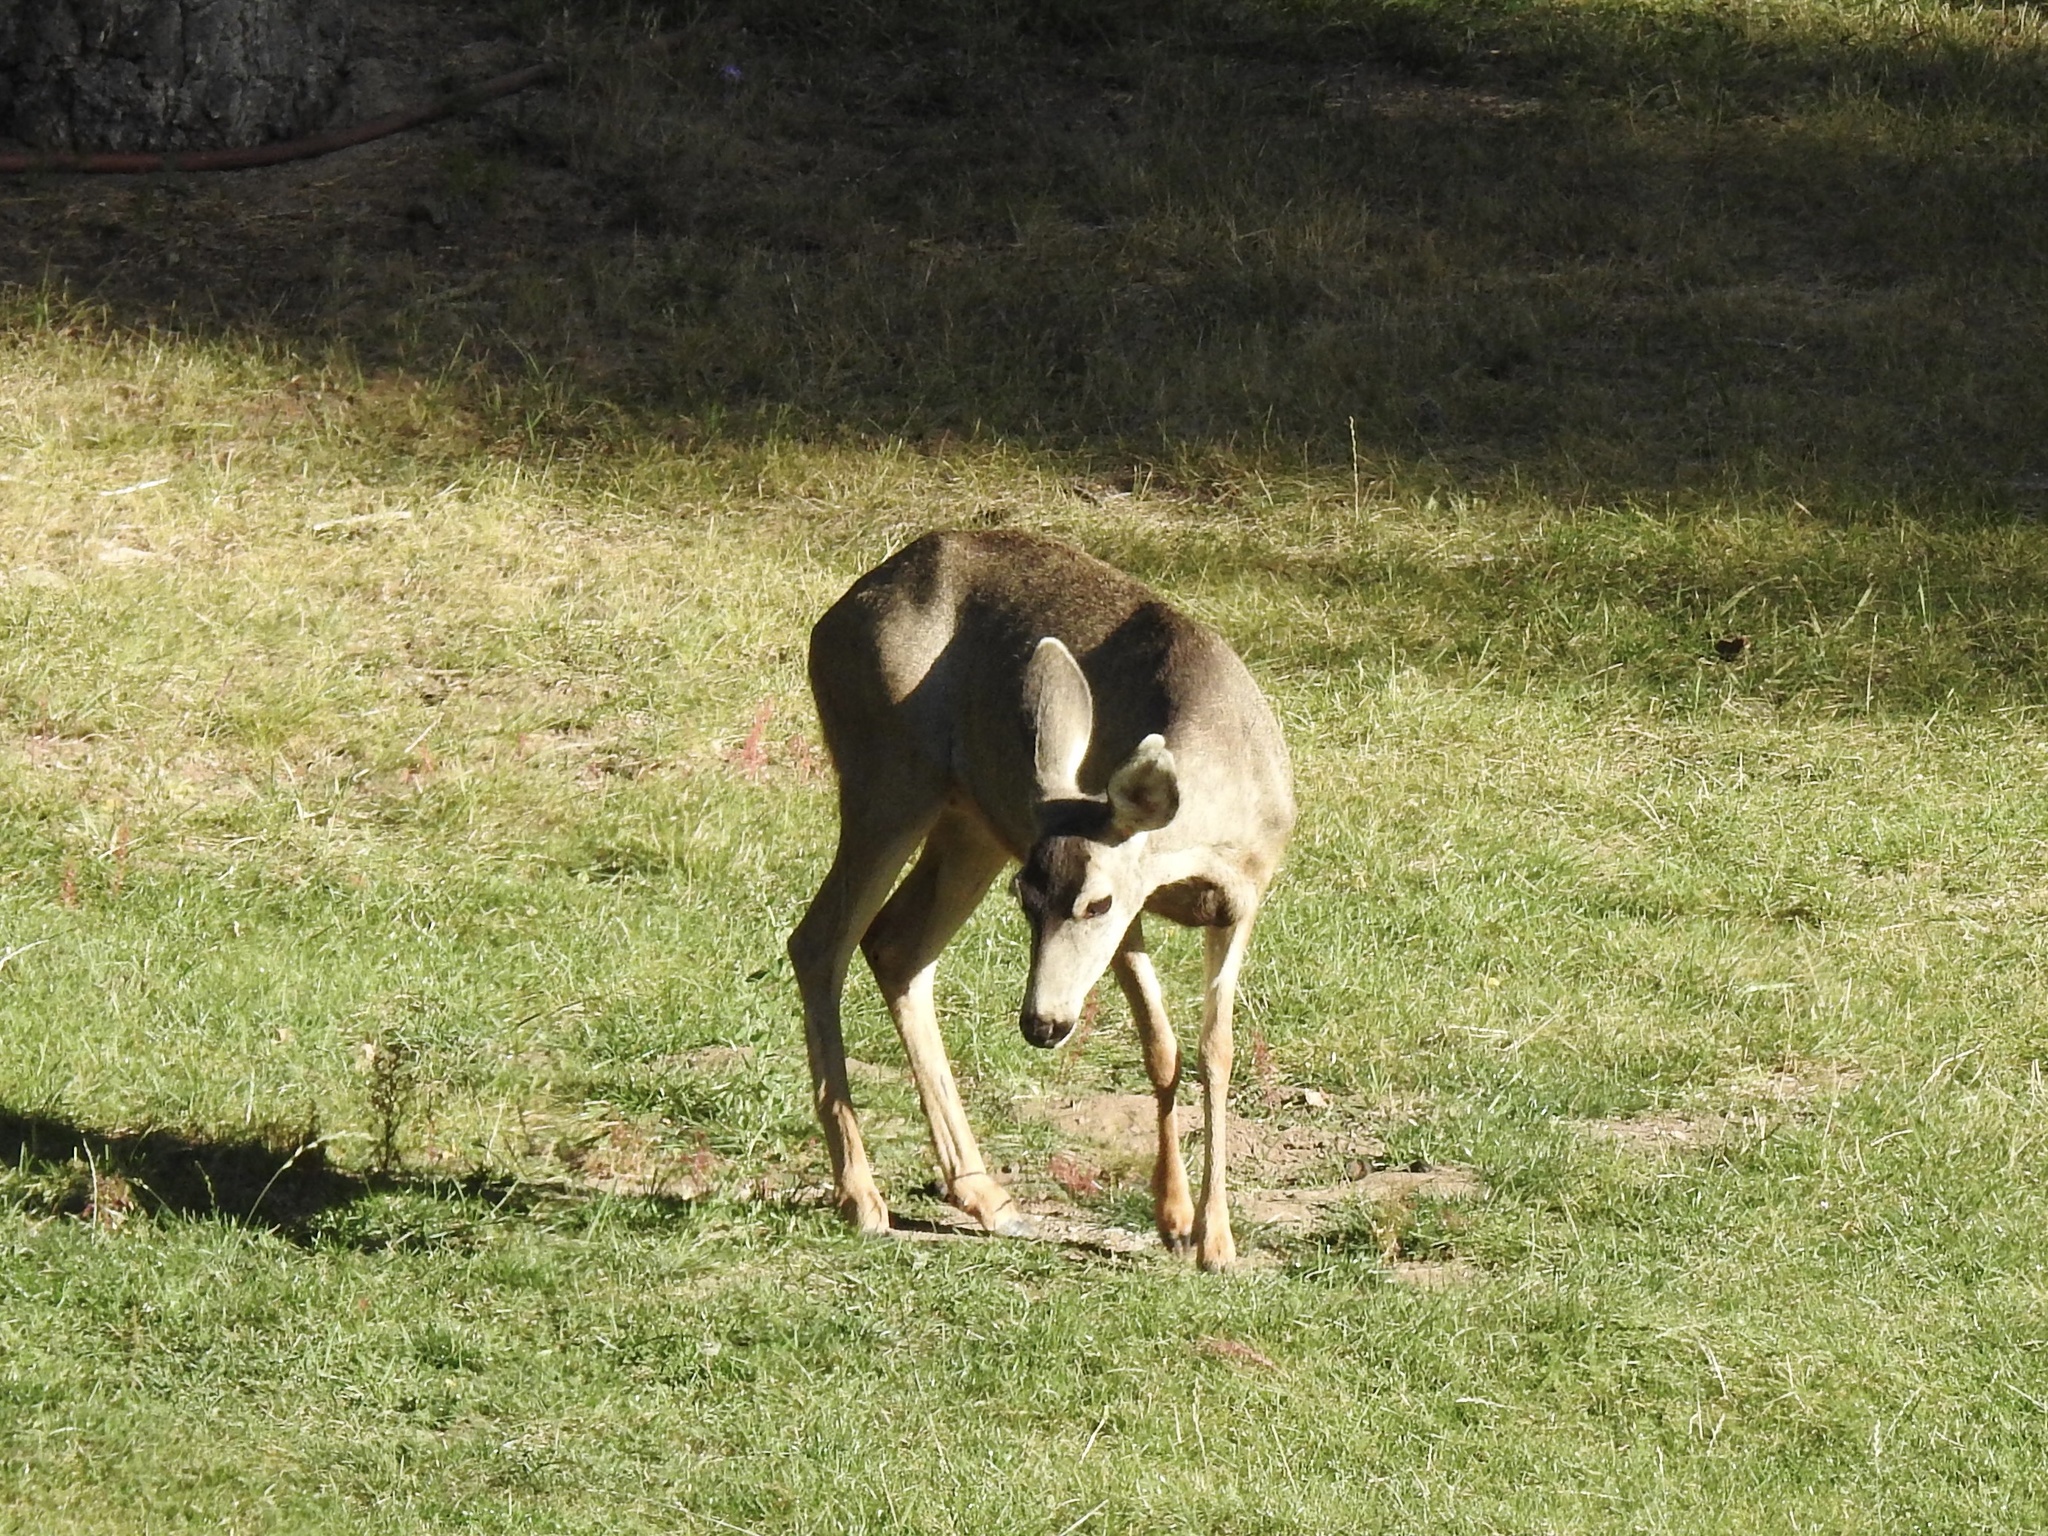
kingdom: Animalia
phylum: Chordata
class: Mammalia
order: Artiodactyla
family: Cervidae
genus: Odocoileus
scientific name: Odocoileus hemionus
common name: Mule deer
